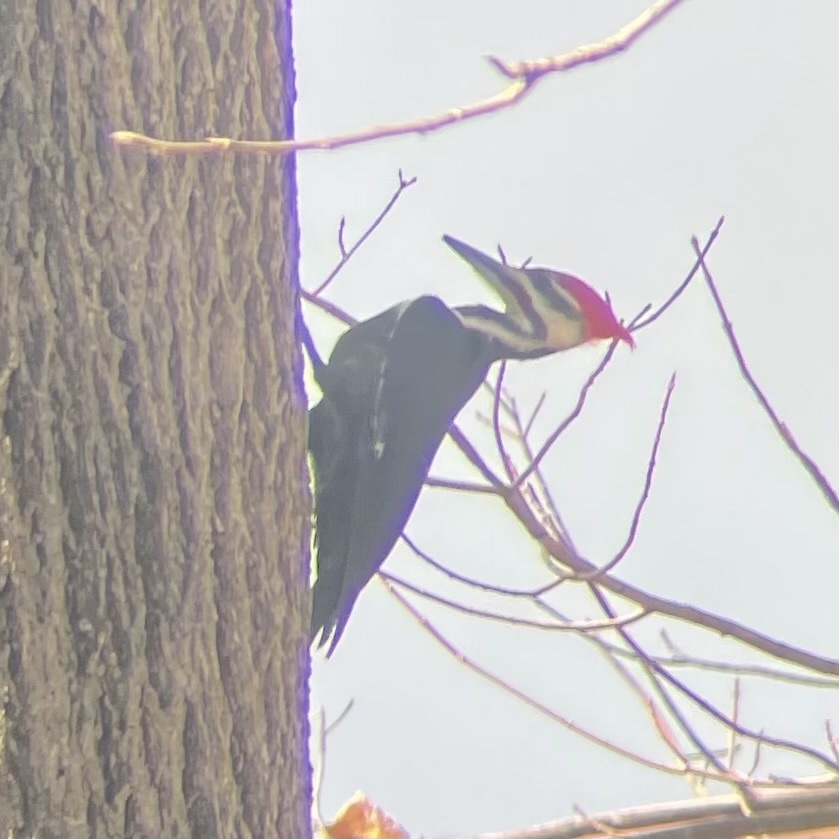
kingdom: Animalia
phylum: Chordata
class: Aves
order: Piciformes
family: Picidae
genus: Dryocopus
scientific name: Dryocopus pileatus
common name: Pileated woodpecker
